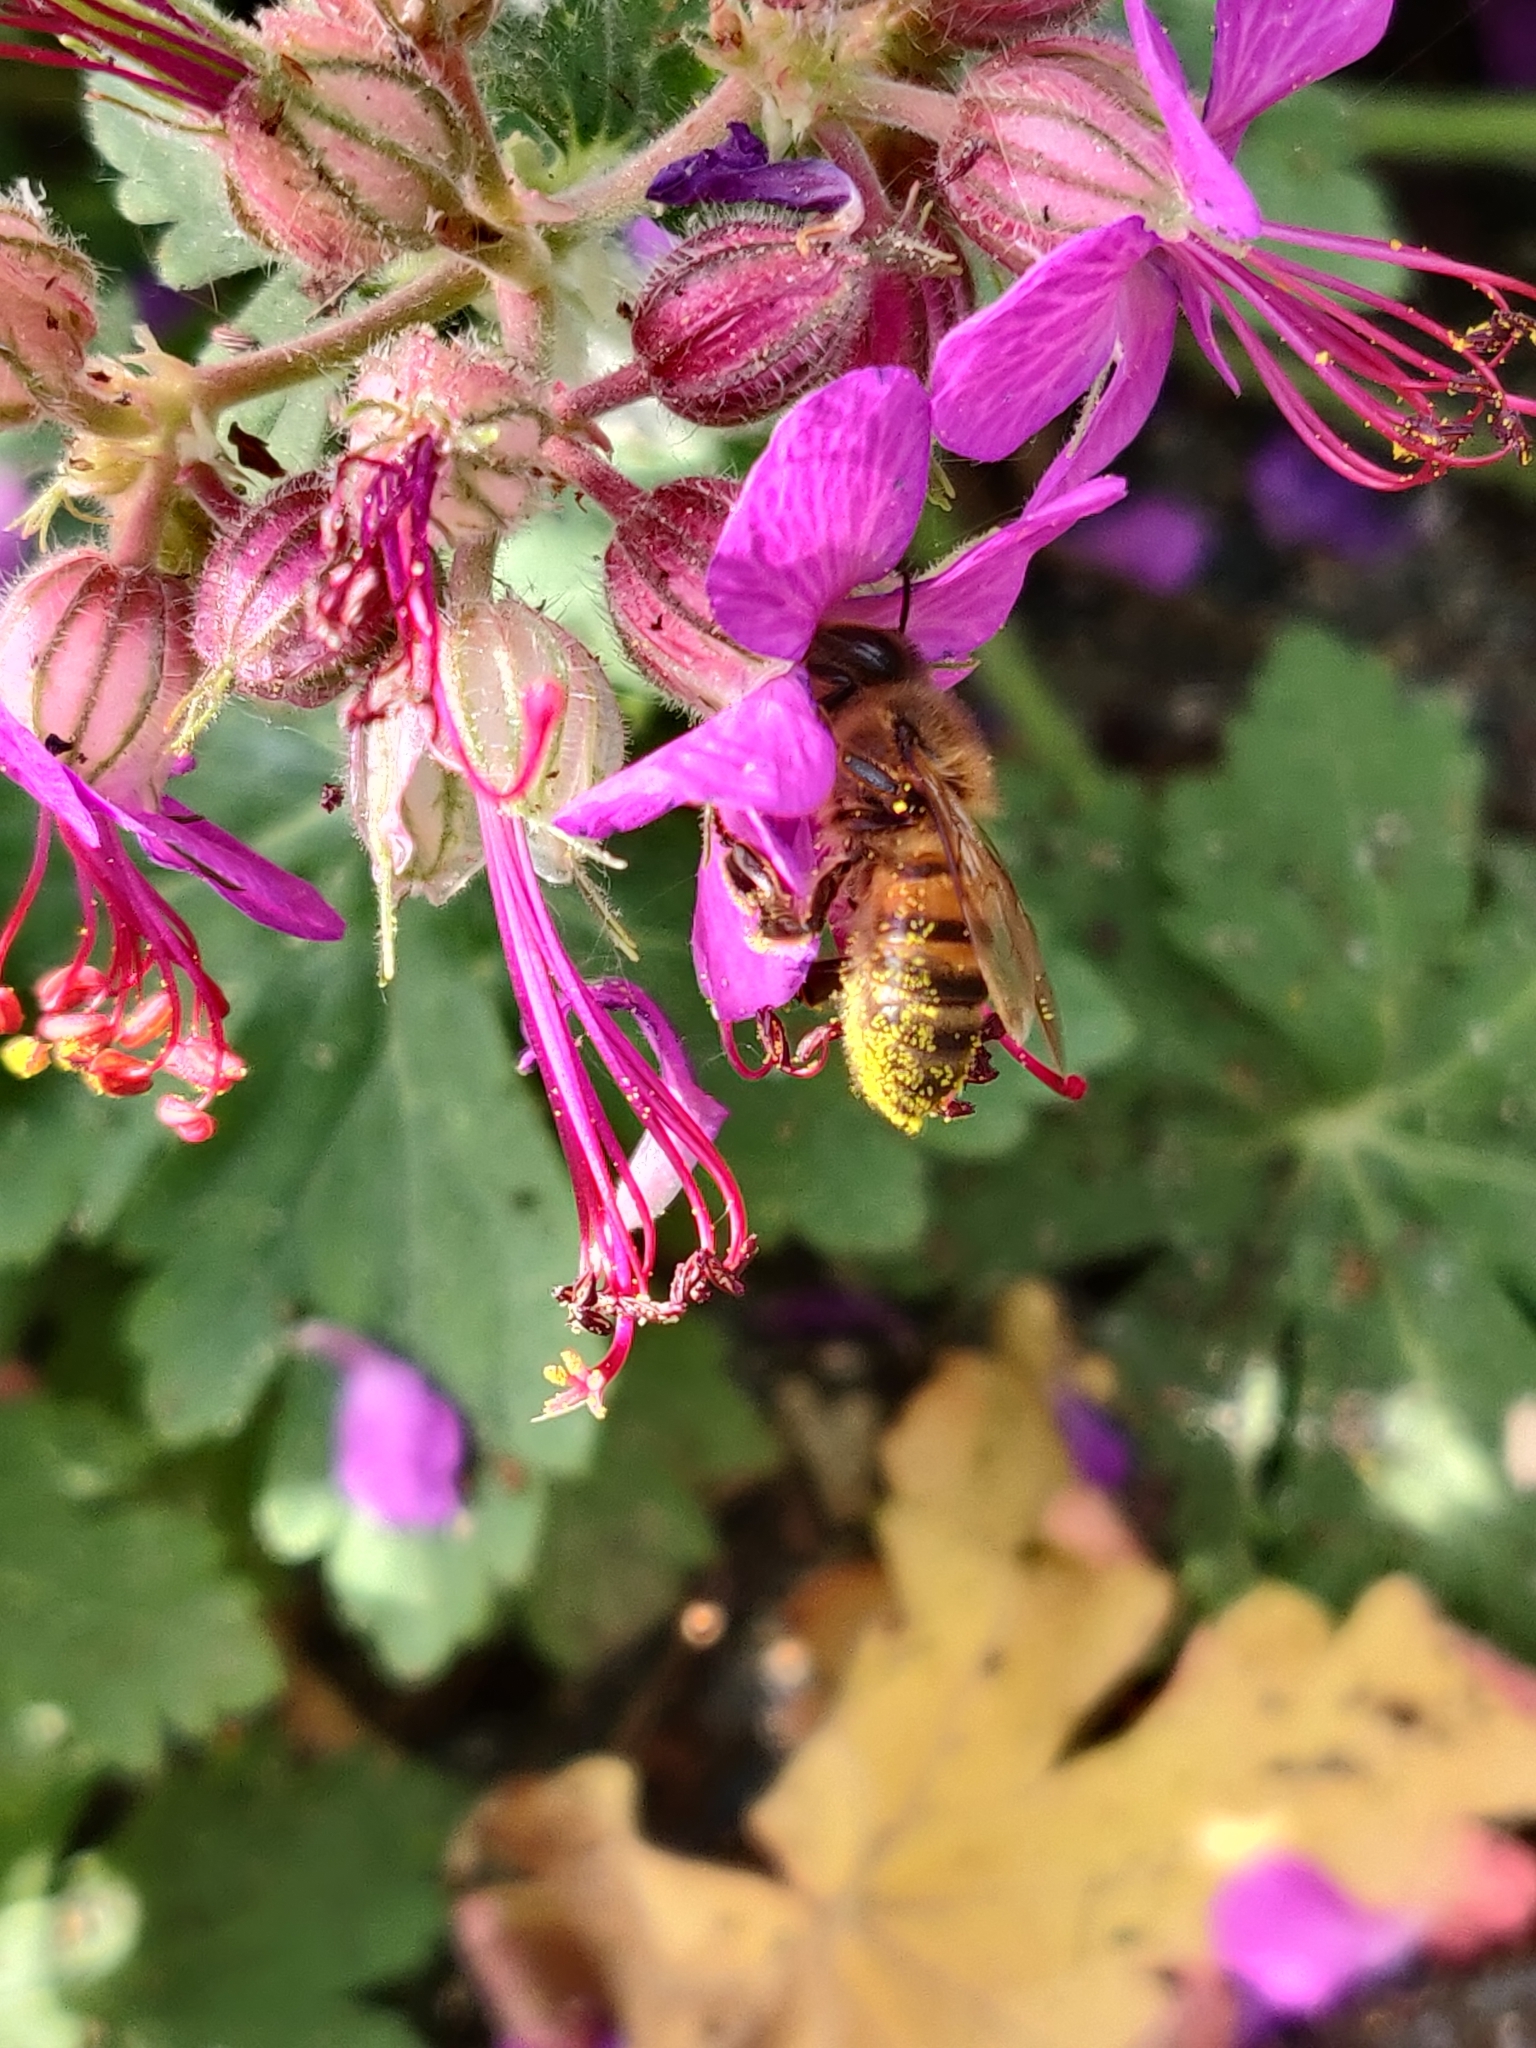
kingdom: Animalia
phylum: Arthropoda
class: Insecta
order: Hymenoptera
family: Apidae
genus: Apis
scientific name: Apis mellifera
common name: Honey bee
